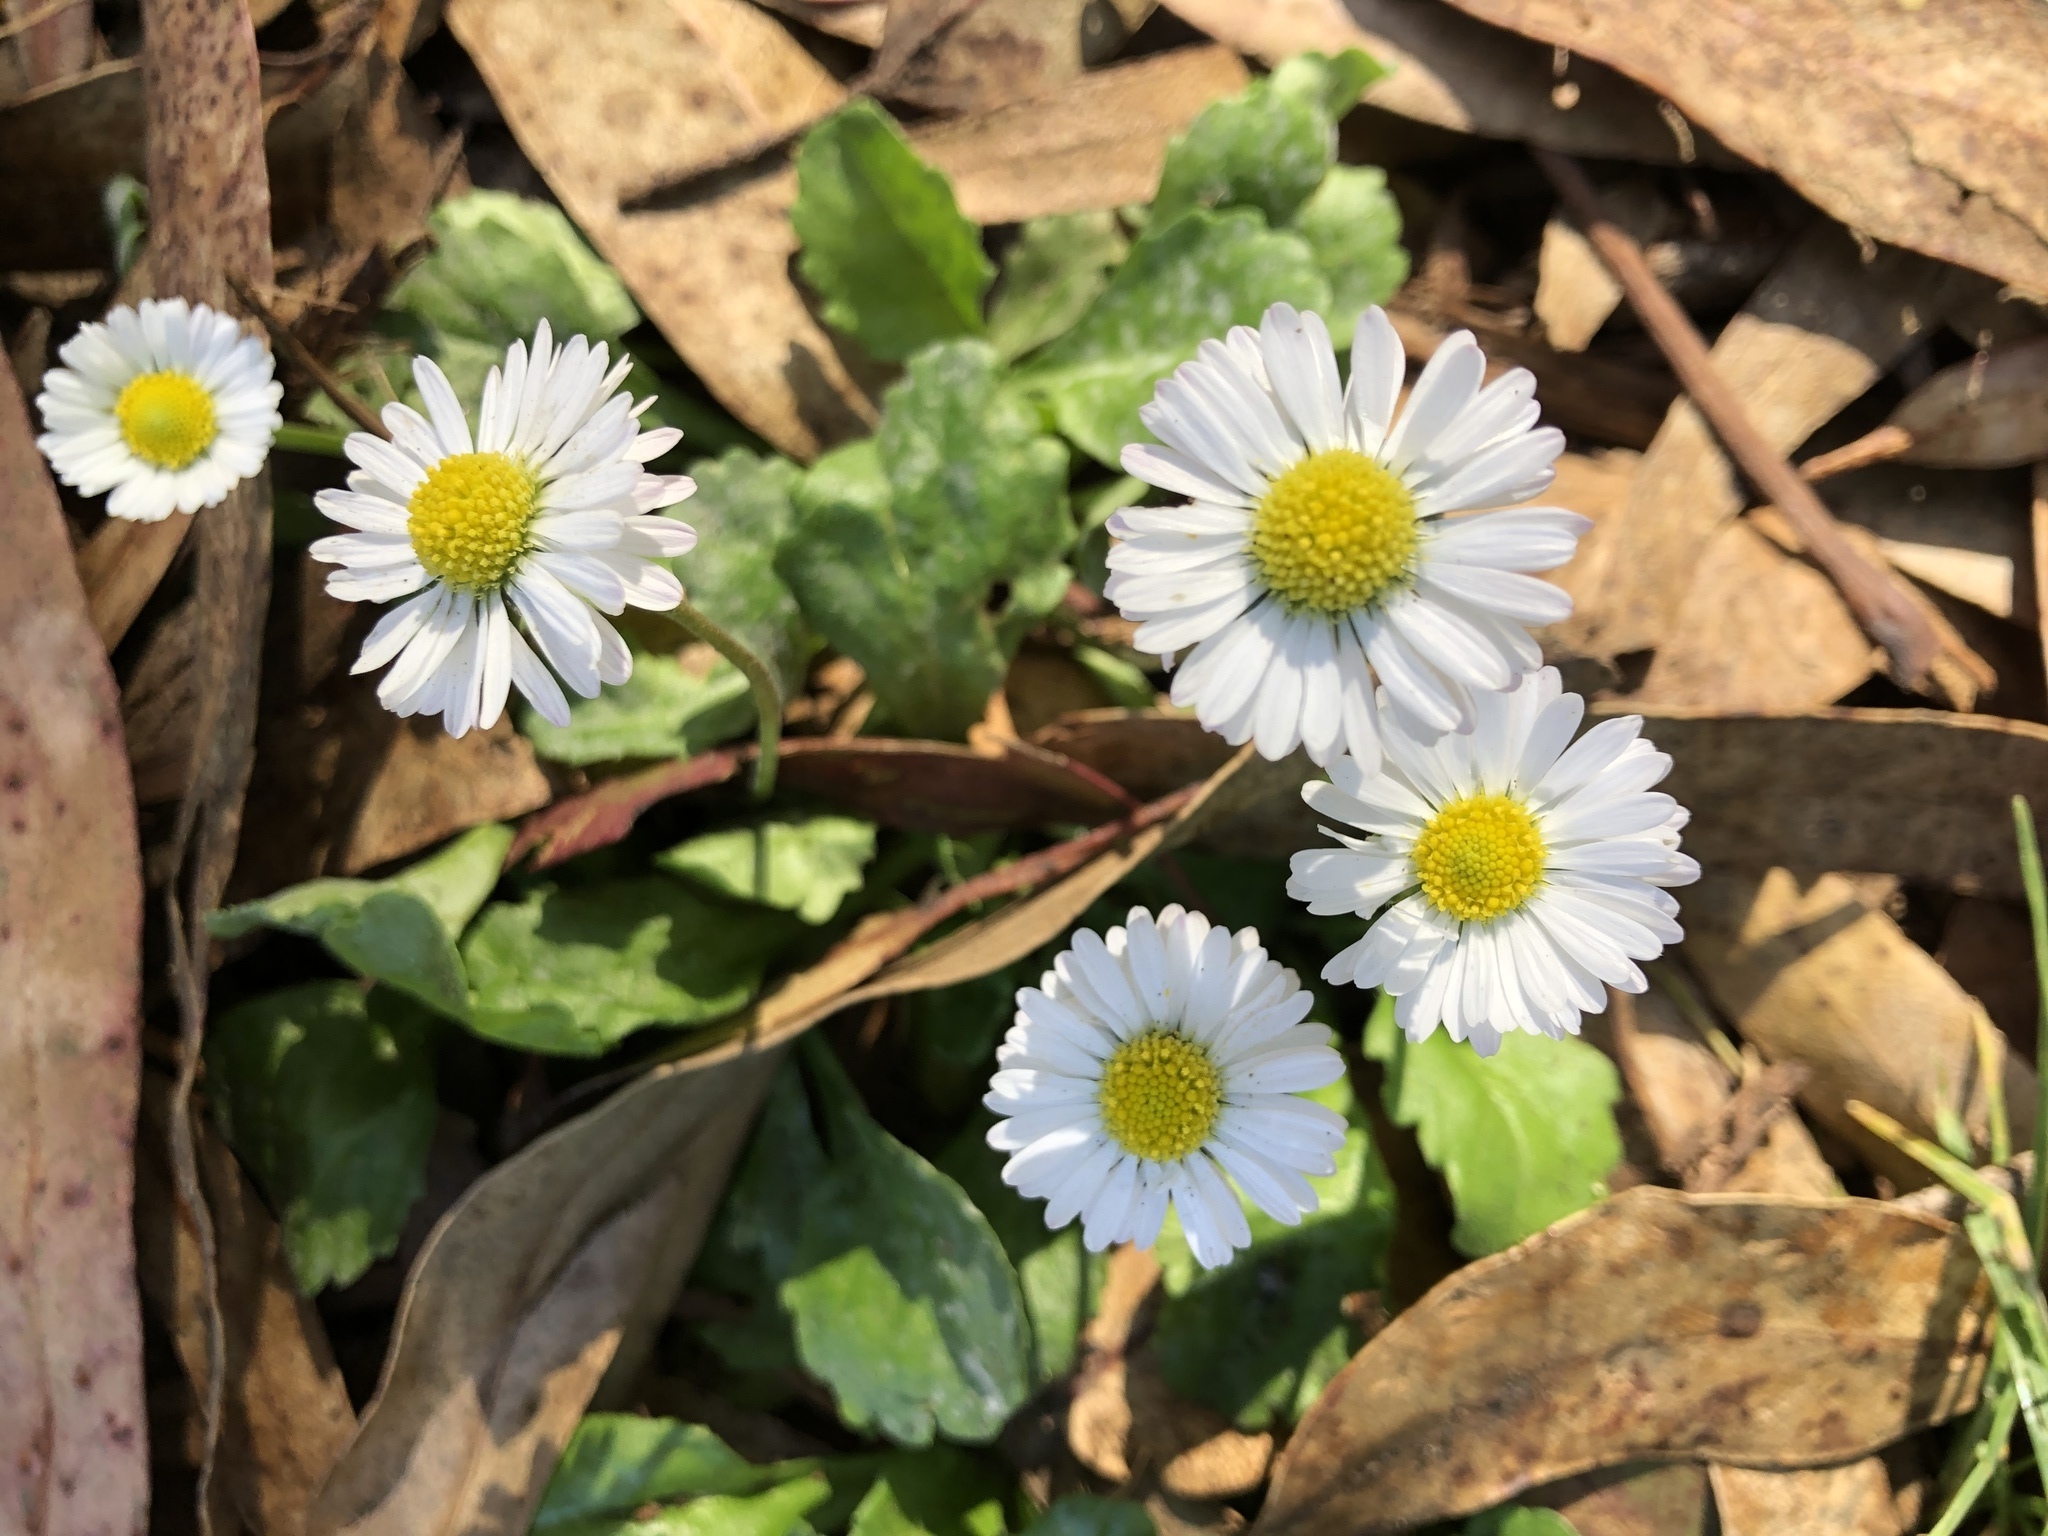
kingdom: Plantae
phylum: Tracheophyta
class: Magnoliopsida
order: Asterales
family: Asteraceae
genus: Bellis
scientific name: Bellis perennis
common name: Lawndaisy
